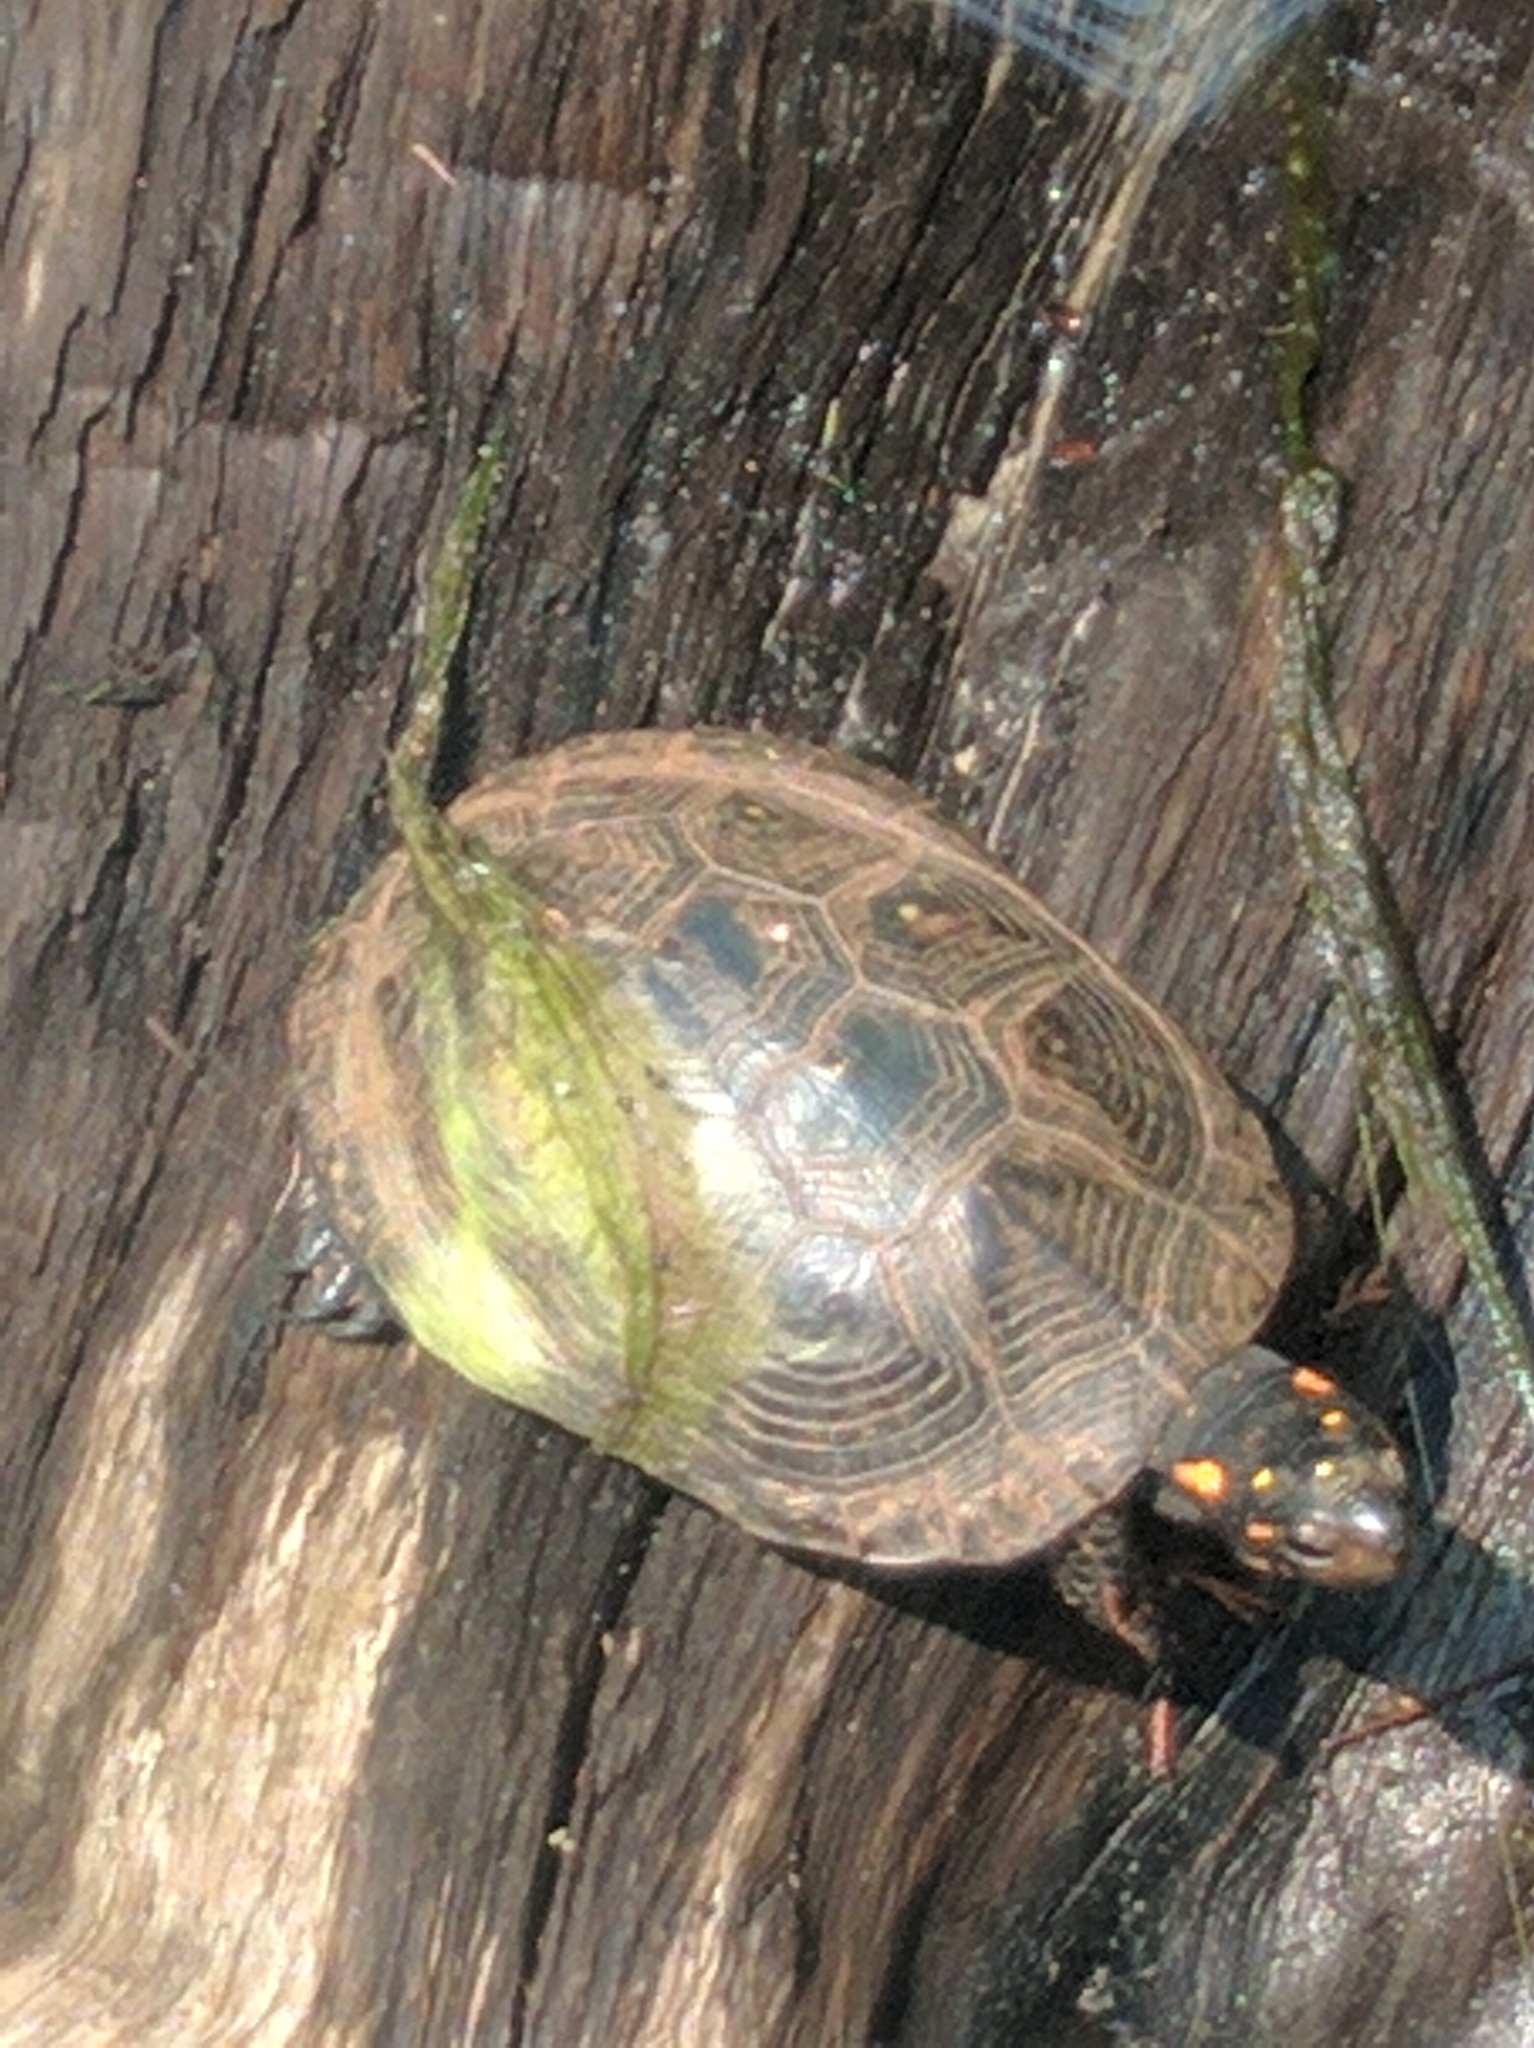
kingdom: Animalia
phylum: Chordata
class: Testudines
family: Emydidae
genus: Clemmys
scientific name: Clemmys guttata
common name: Spotted turtle
